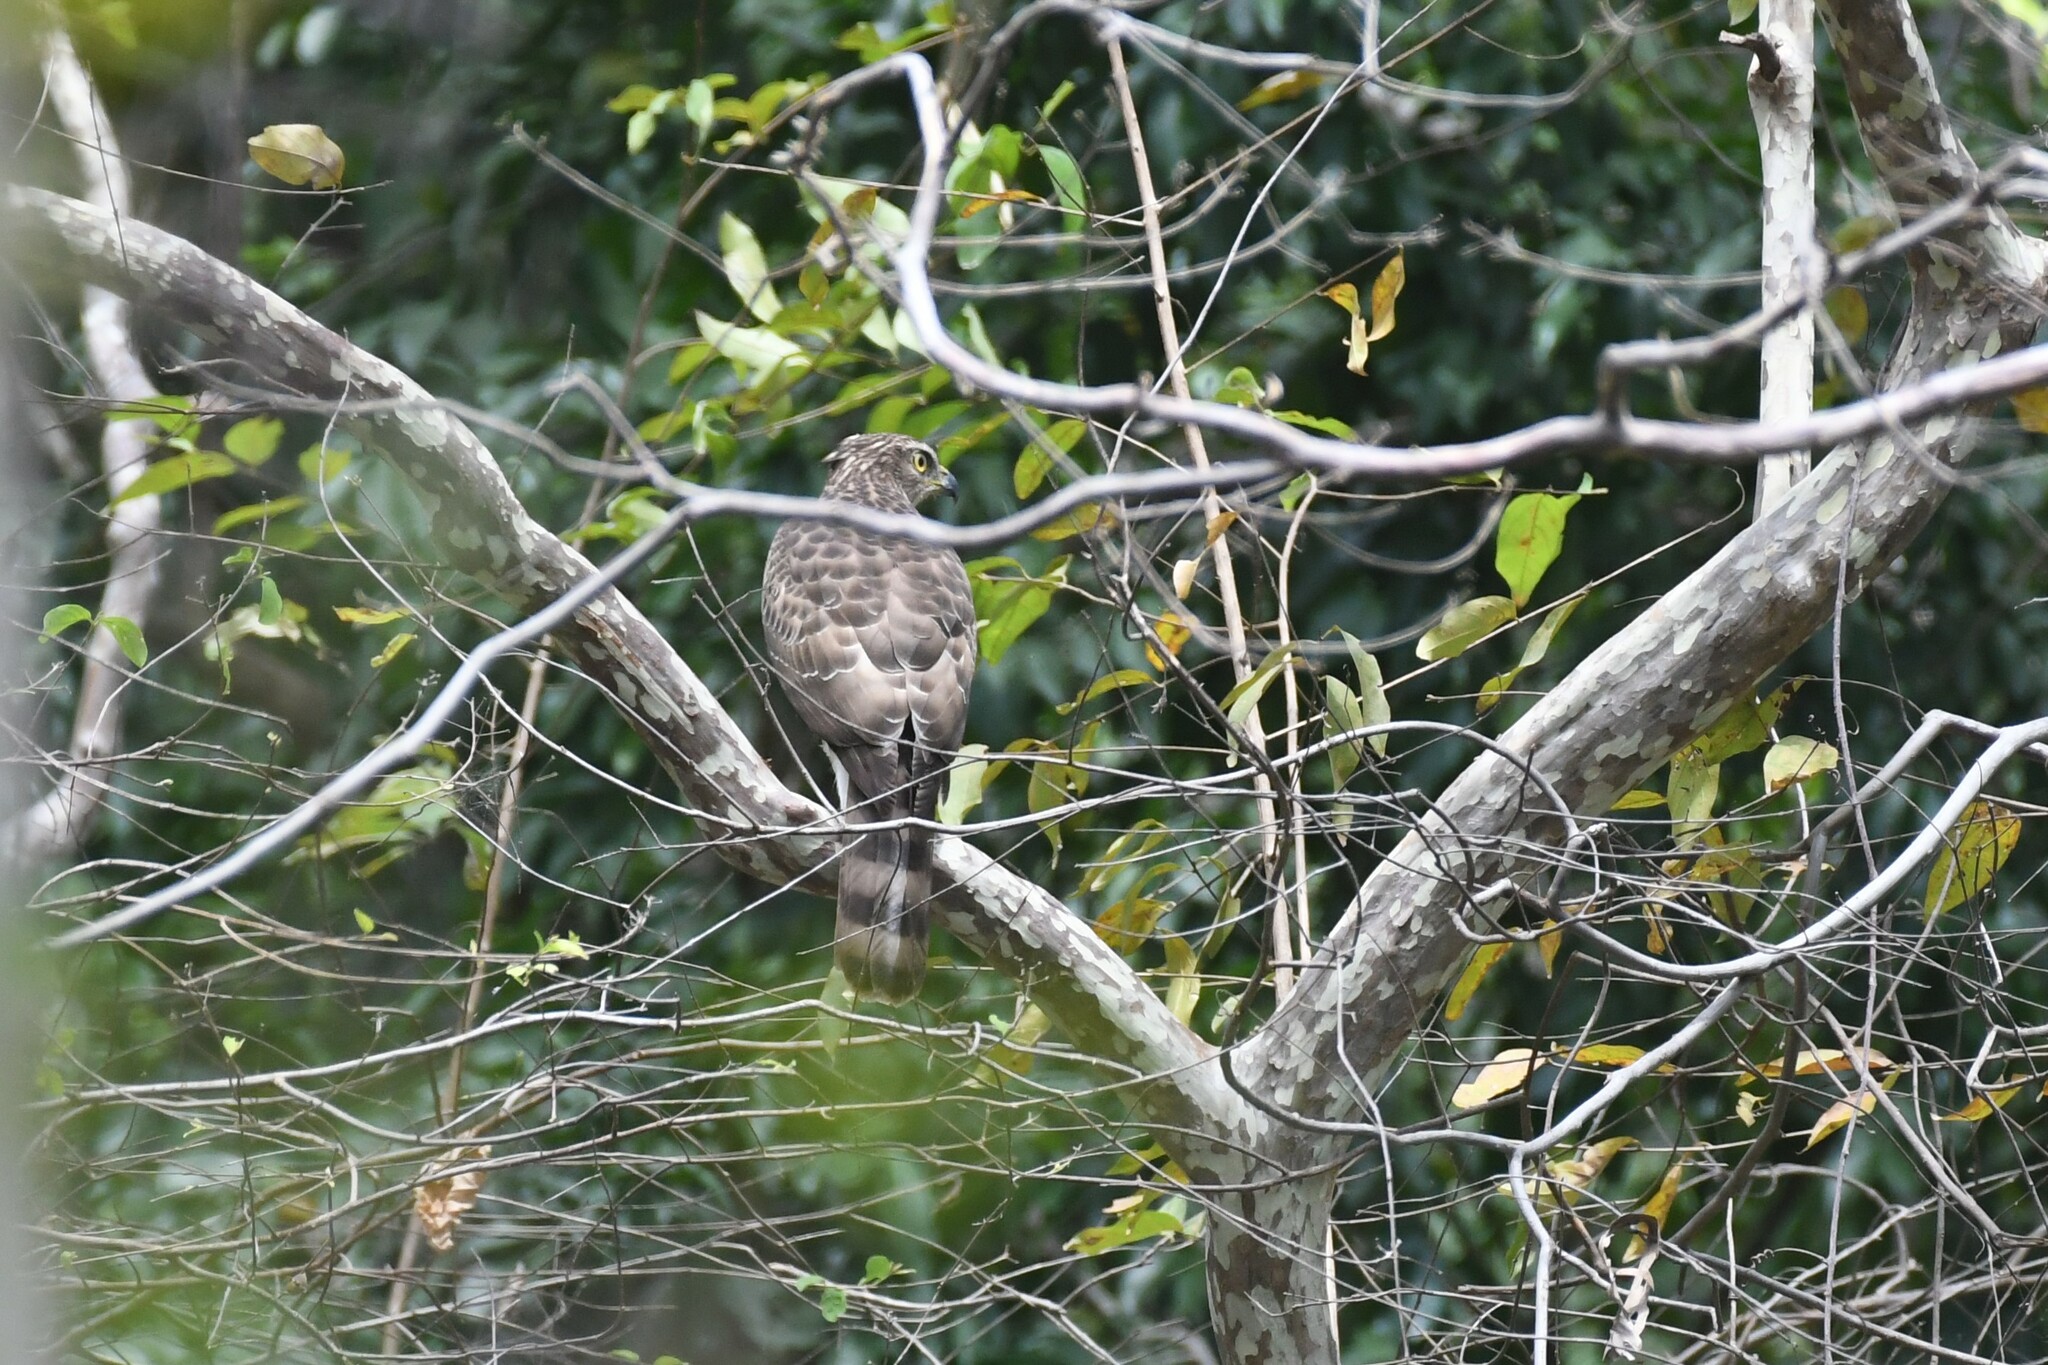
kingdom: Animalia
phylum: Chordata
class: Aves
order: Accipitriformes
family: Accipitridae
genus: Accipiter
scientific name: Accipiter trivirgatus
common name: Crested goshawk
